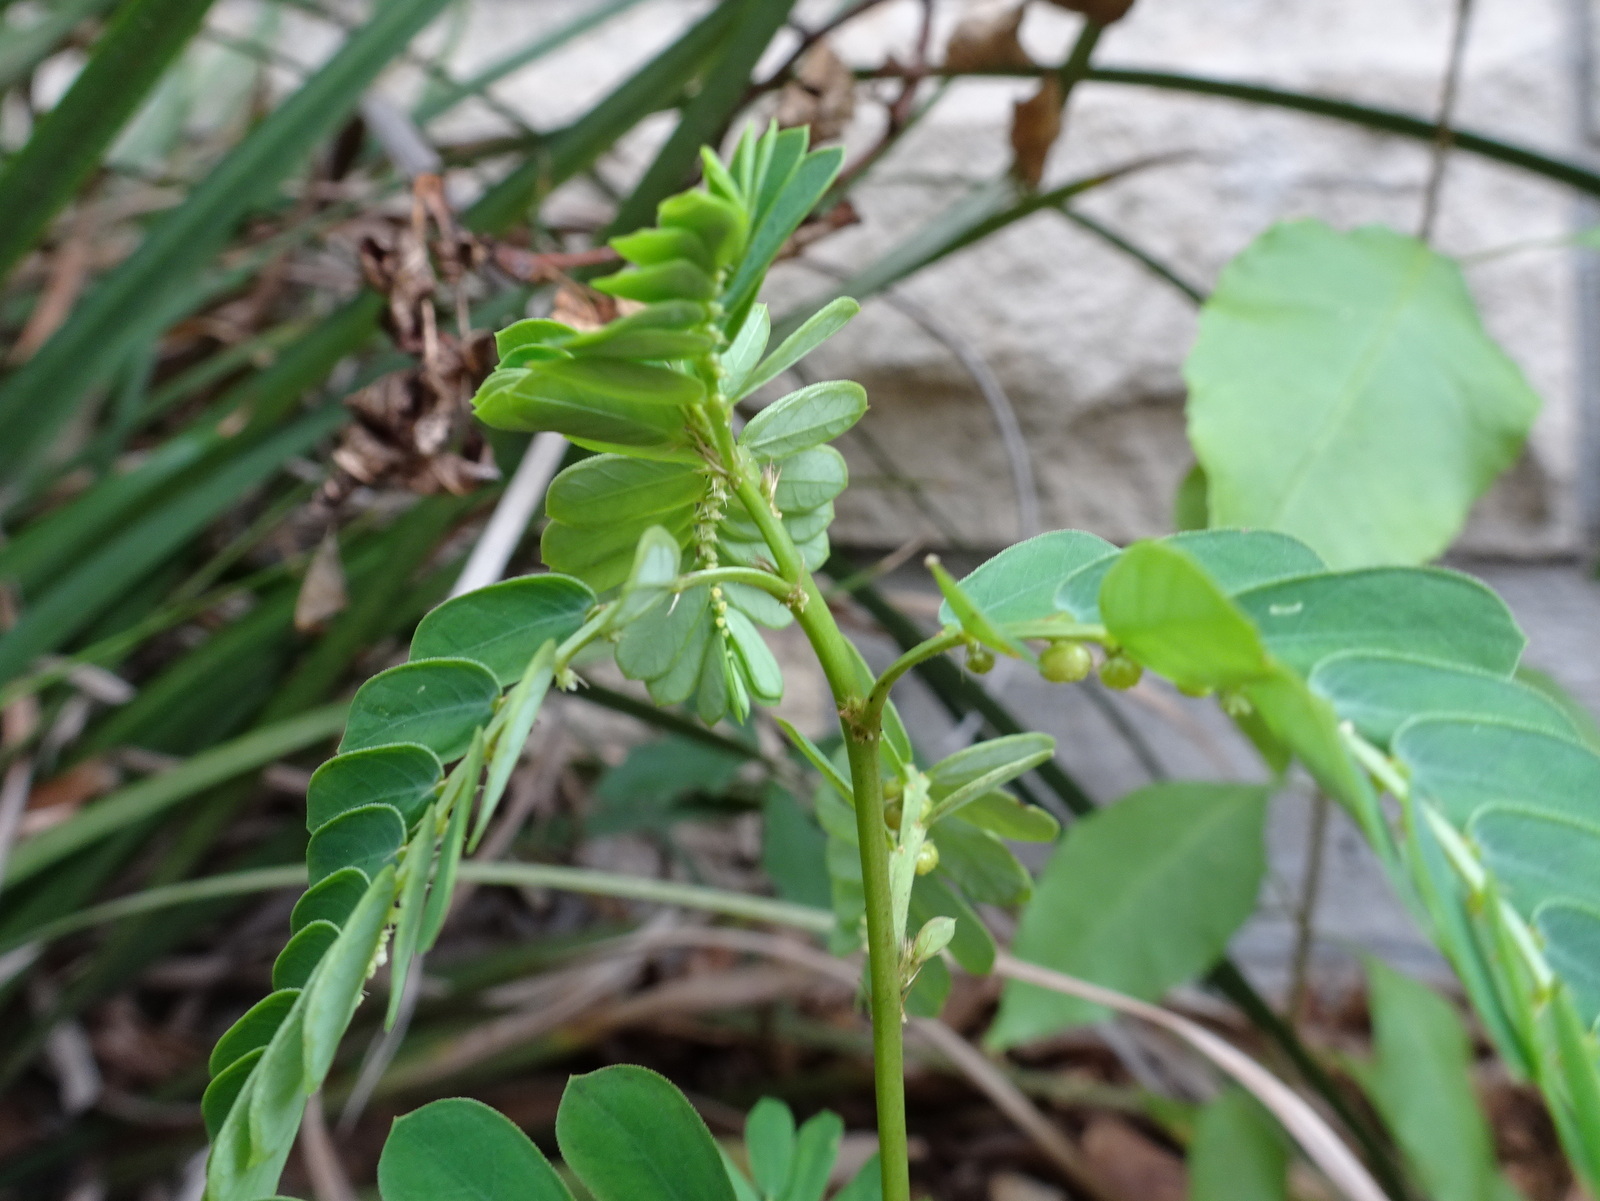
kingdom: Plantae
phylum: Tracheophyta
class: Magnoliopsida
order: Malpighiales
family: Phyllanthaceae
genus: Phyllanthus
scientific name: Phyllanthus urinaria
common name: Chamber bitter
